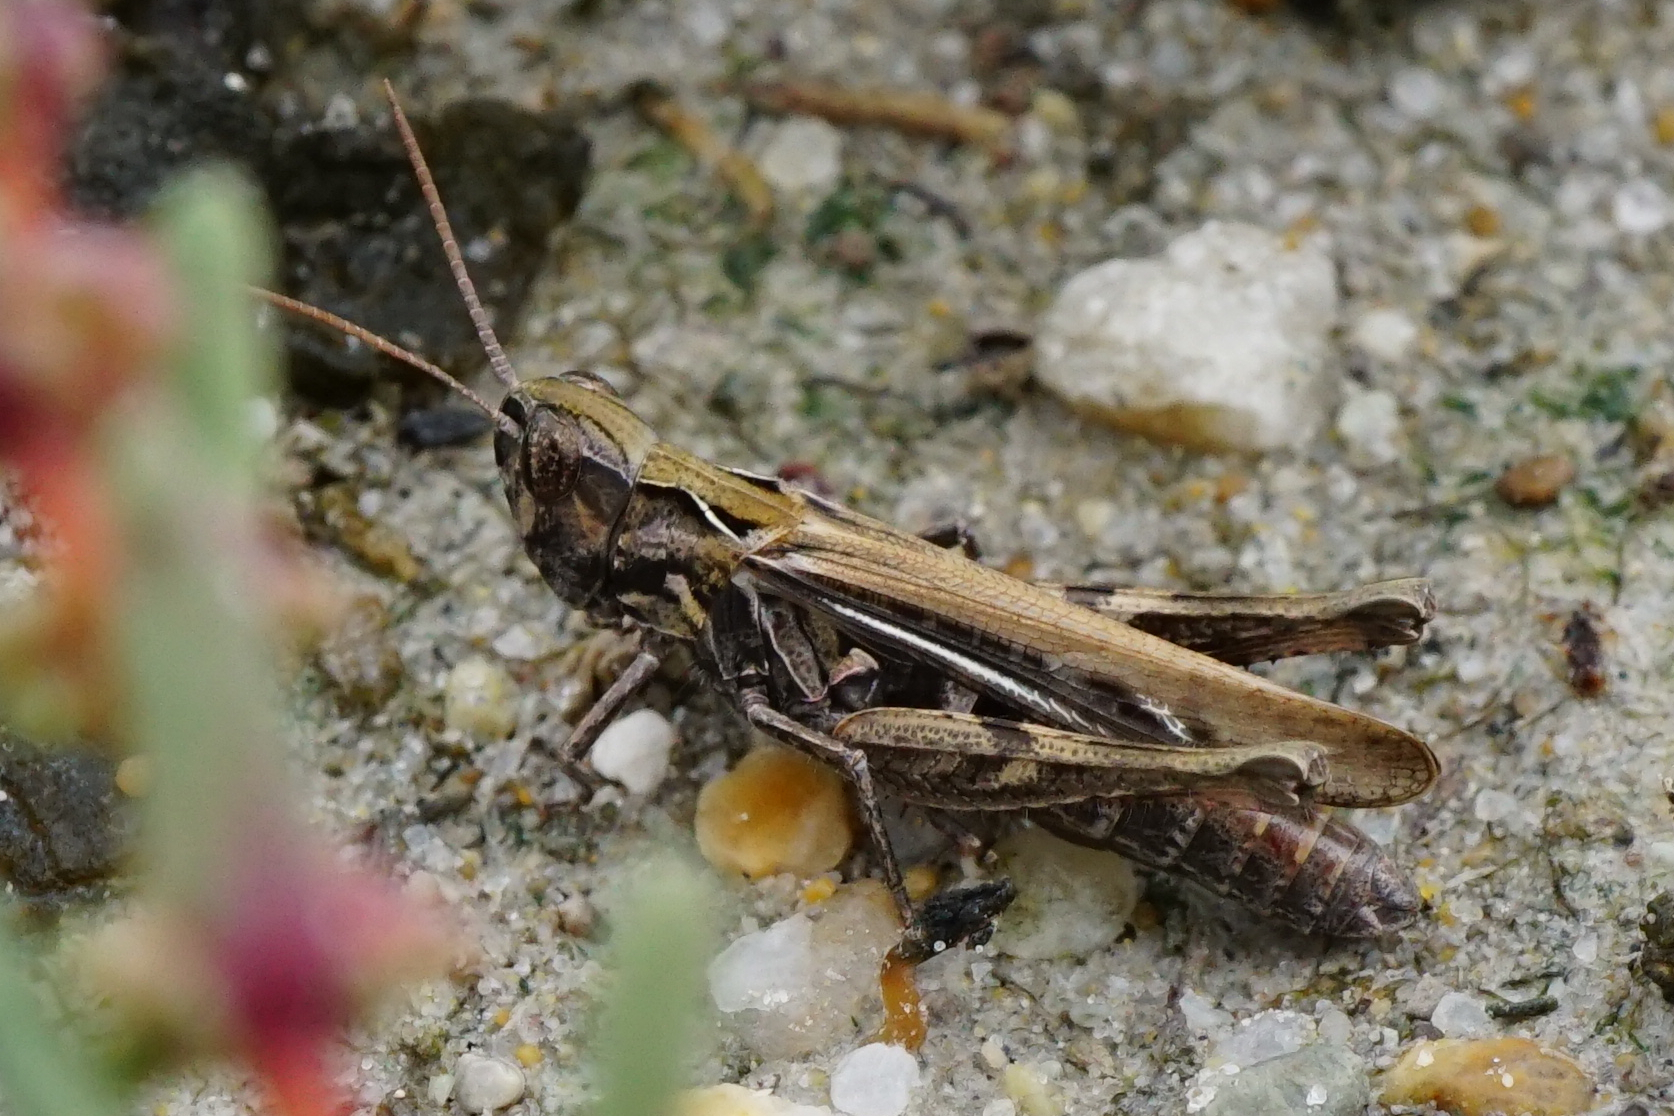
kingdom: Animalia
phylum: Arthropoda
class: Insecta
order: Orthoptera
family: Acrididae
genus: Glyptobothrus
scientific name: Glyptobothrus
